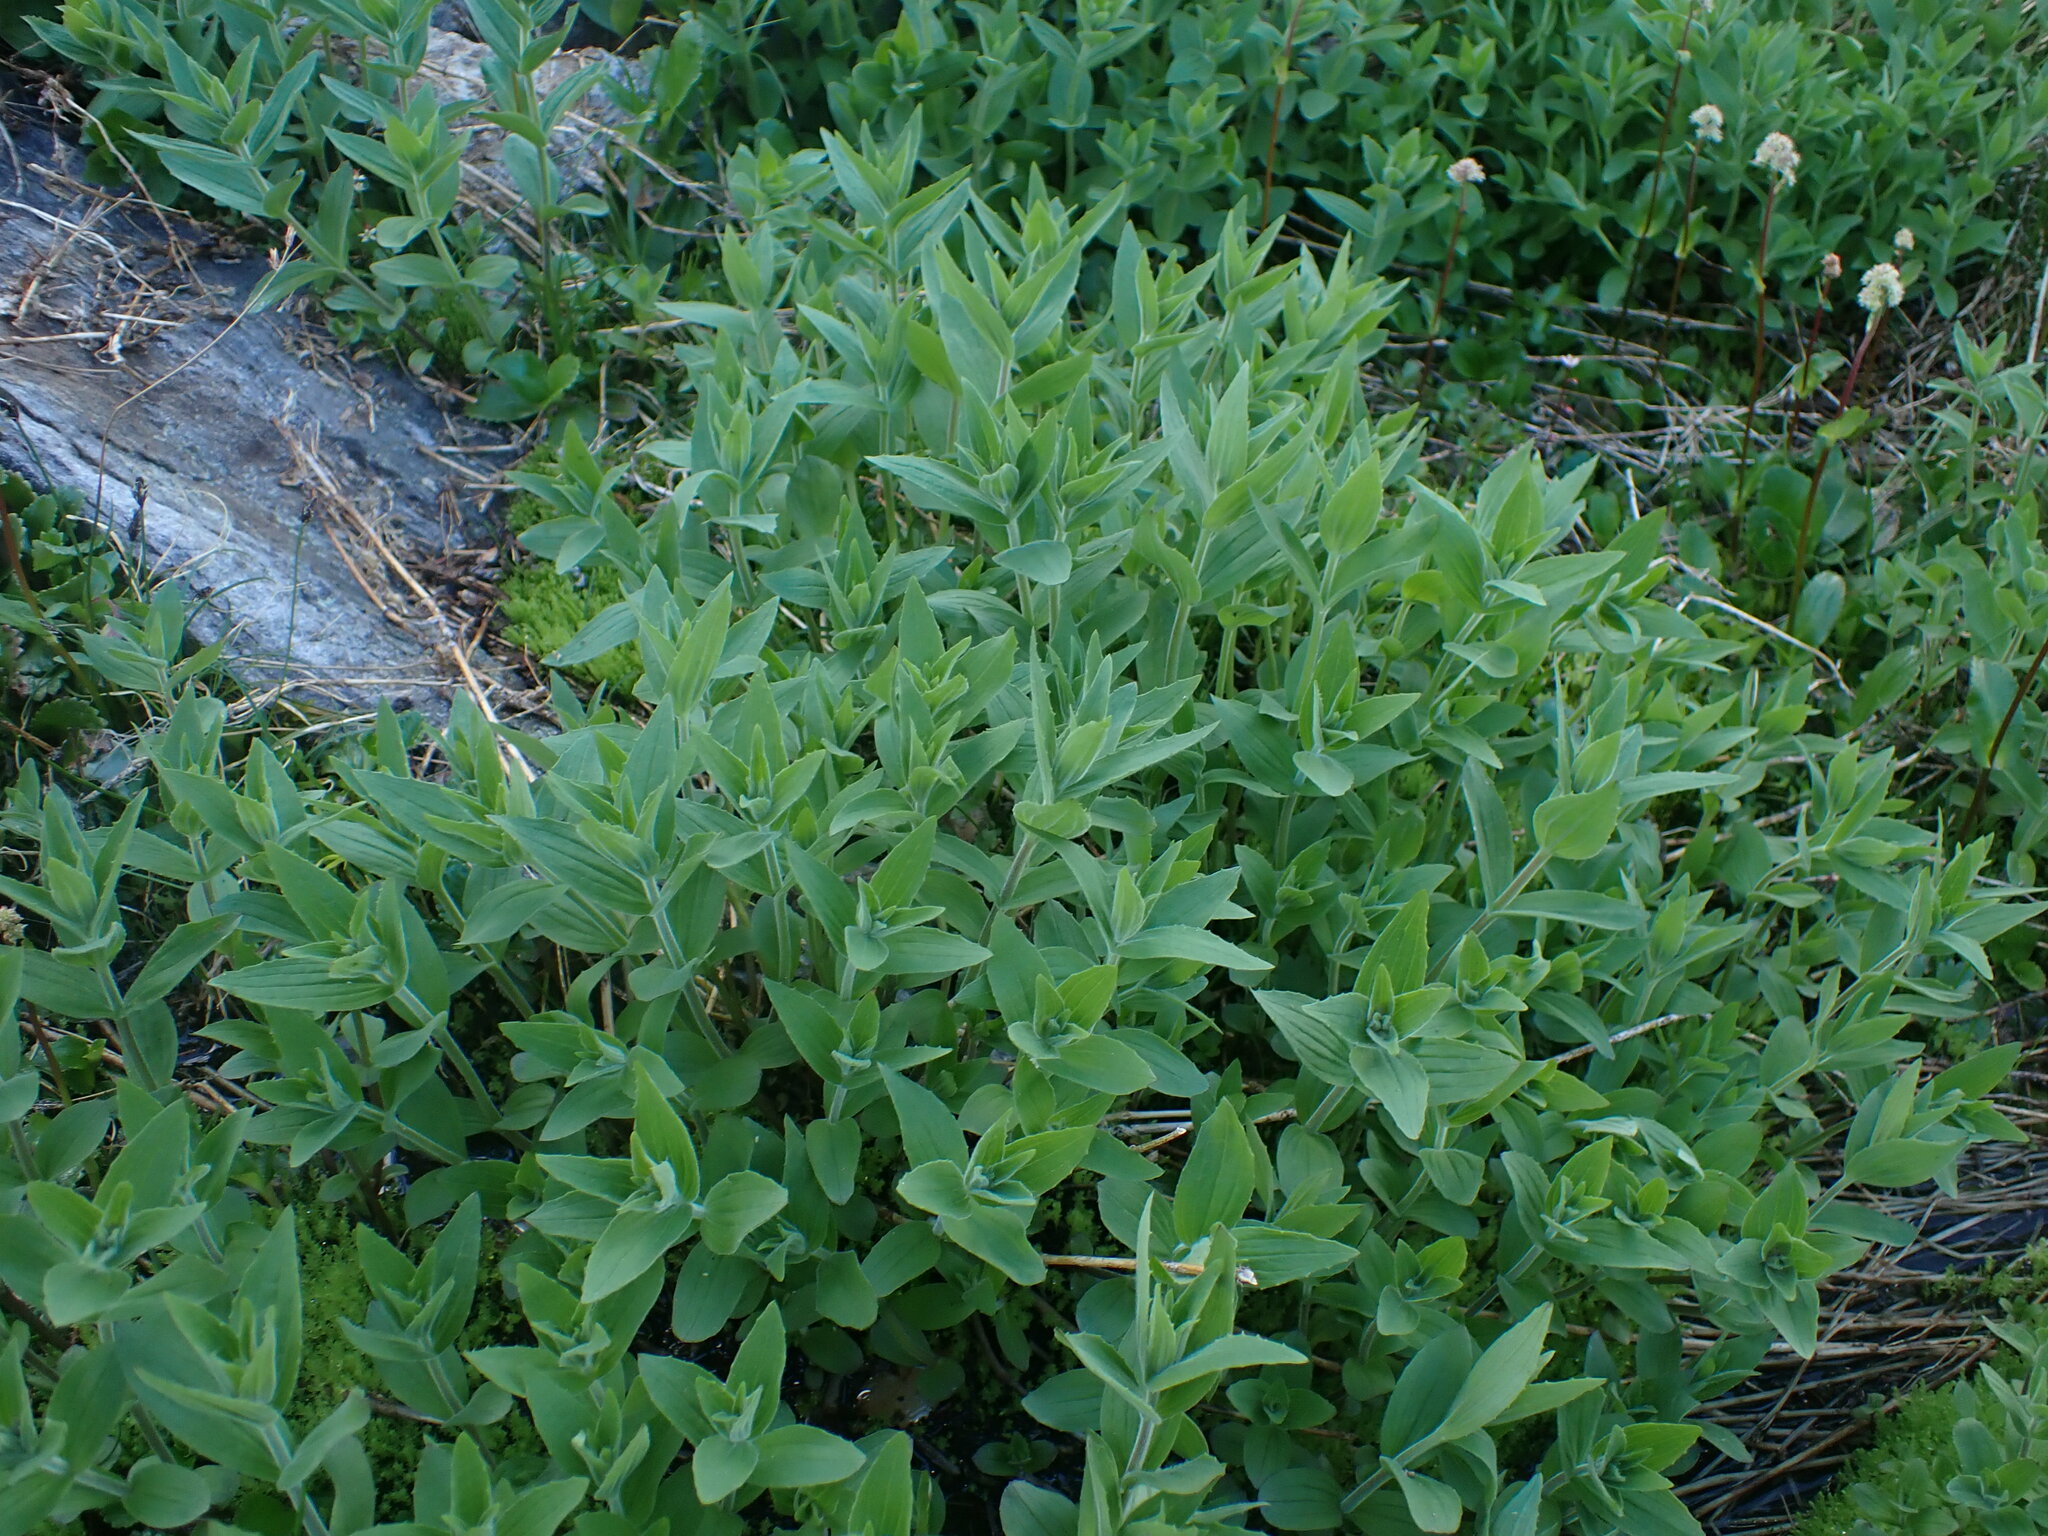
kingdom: Plantae
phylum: Tracheophyta
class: Magnoliopsida
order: Lamiales
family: Phrymaceae
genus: Erythranthe
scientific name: Erythranthe lewisii
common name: Lewis's monkey-flower
